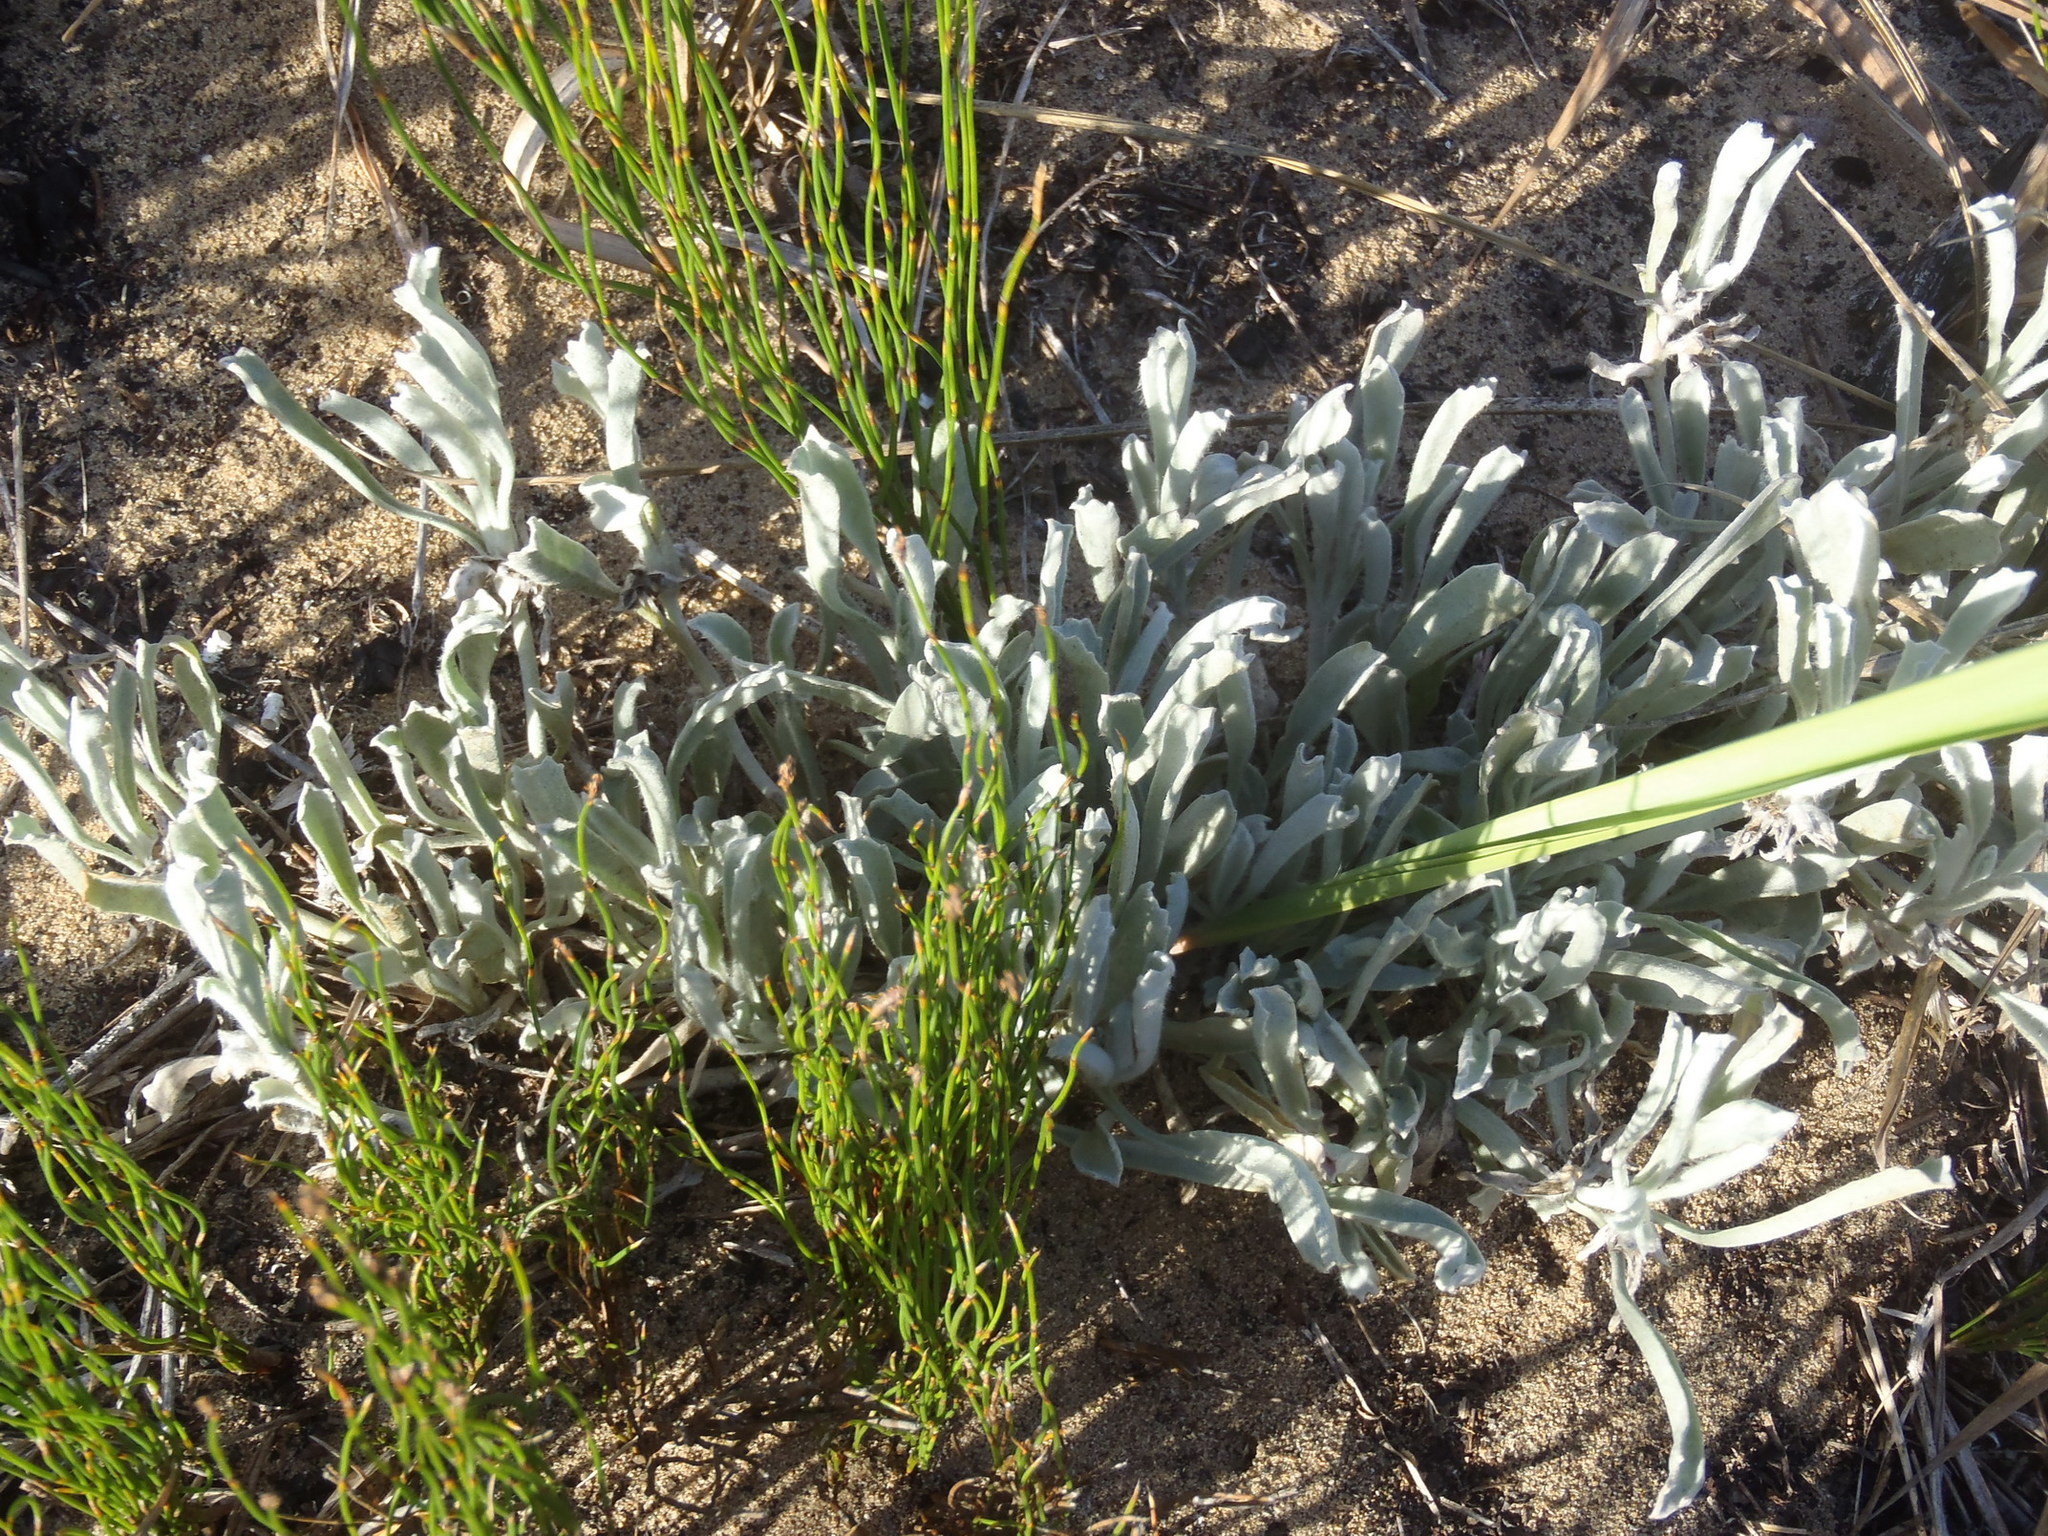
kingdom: Plantae
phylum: Tracheophyta
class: Magnoliopsida
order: Apiales
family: Apiaceae
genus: Centella
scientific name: Centella tridentata
